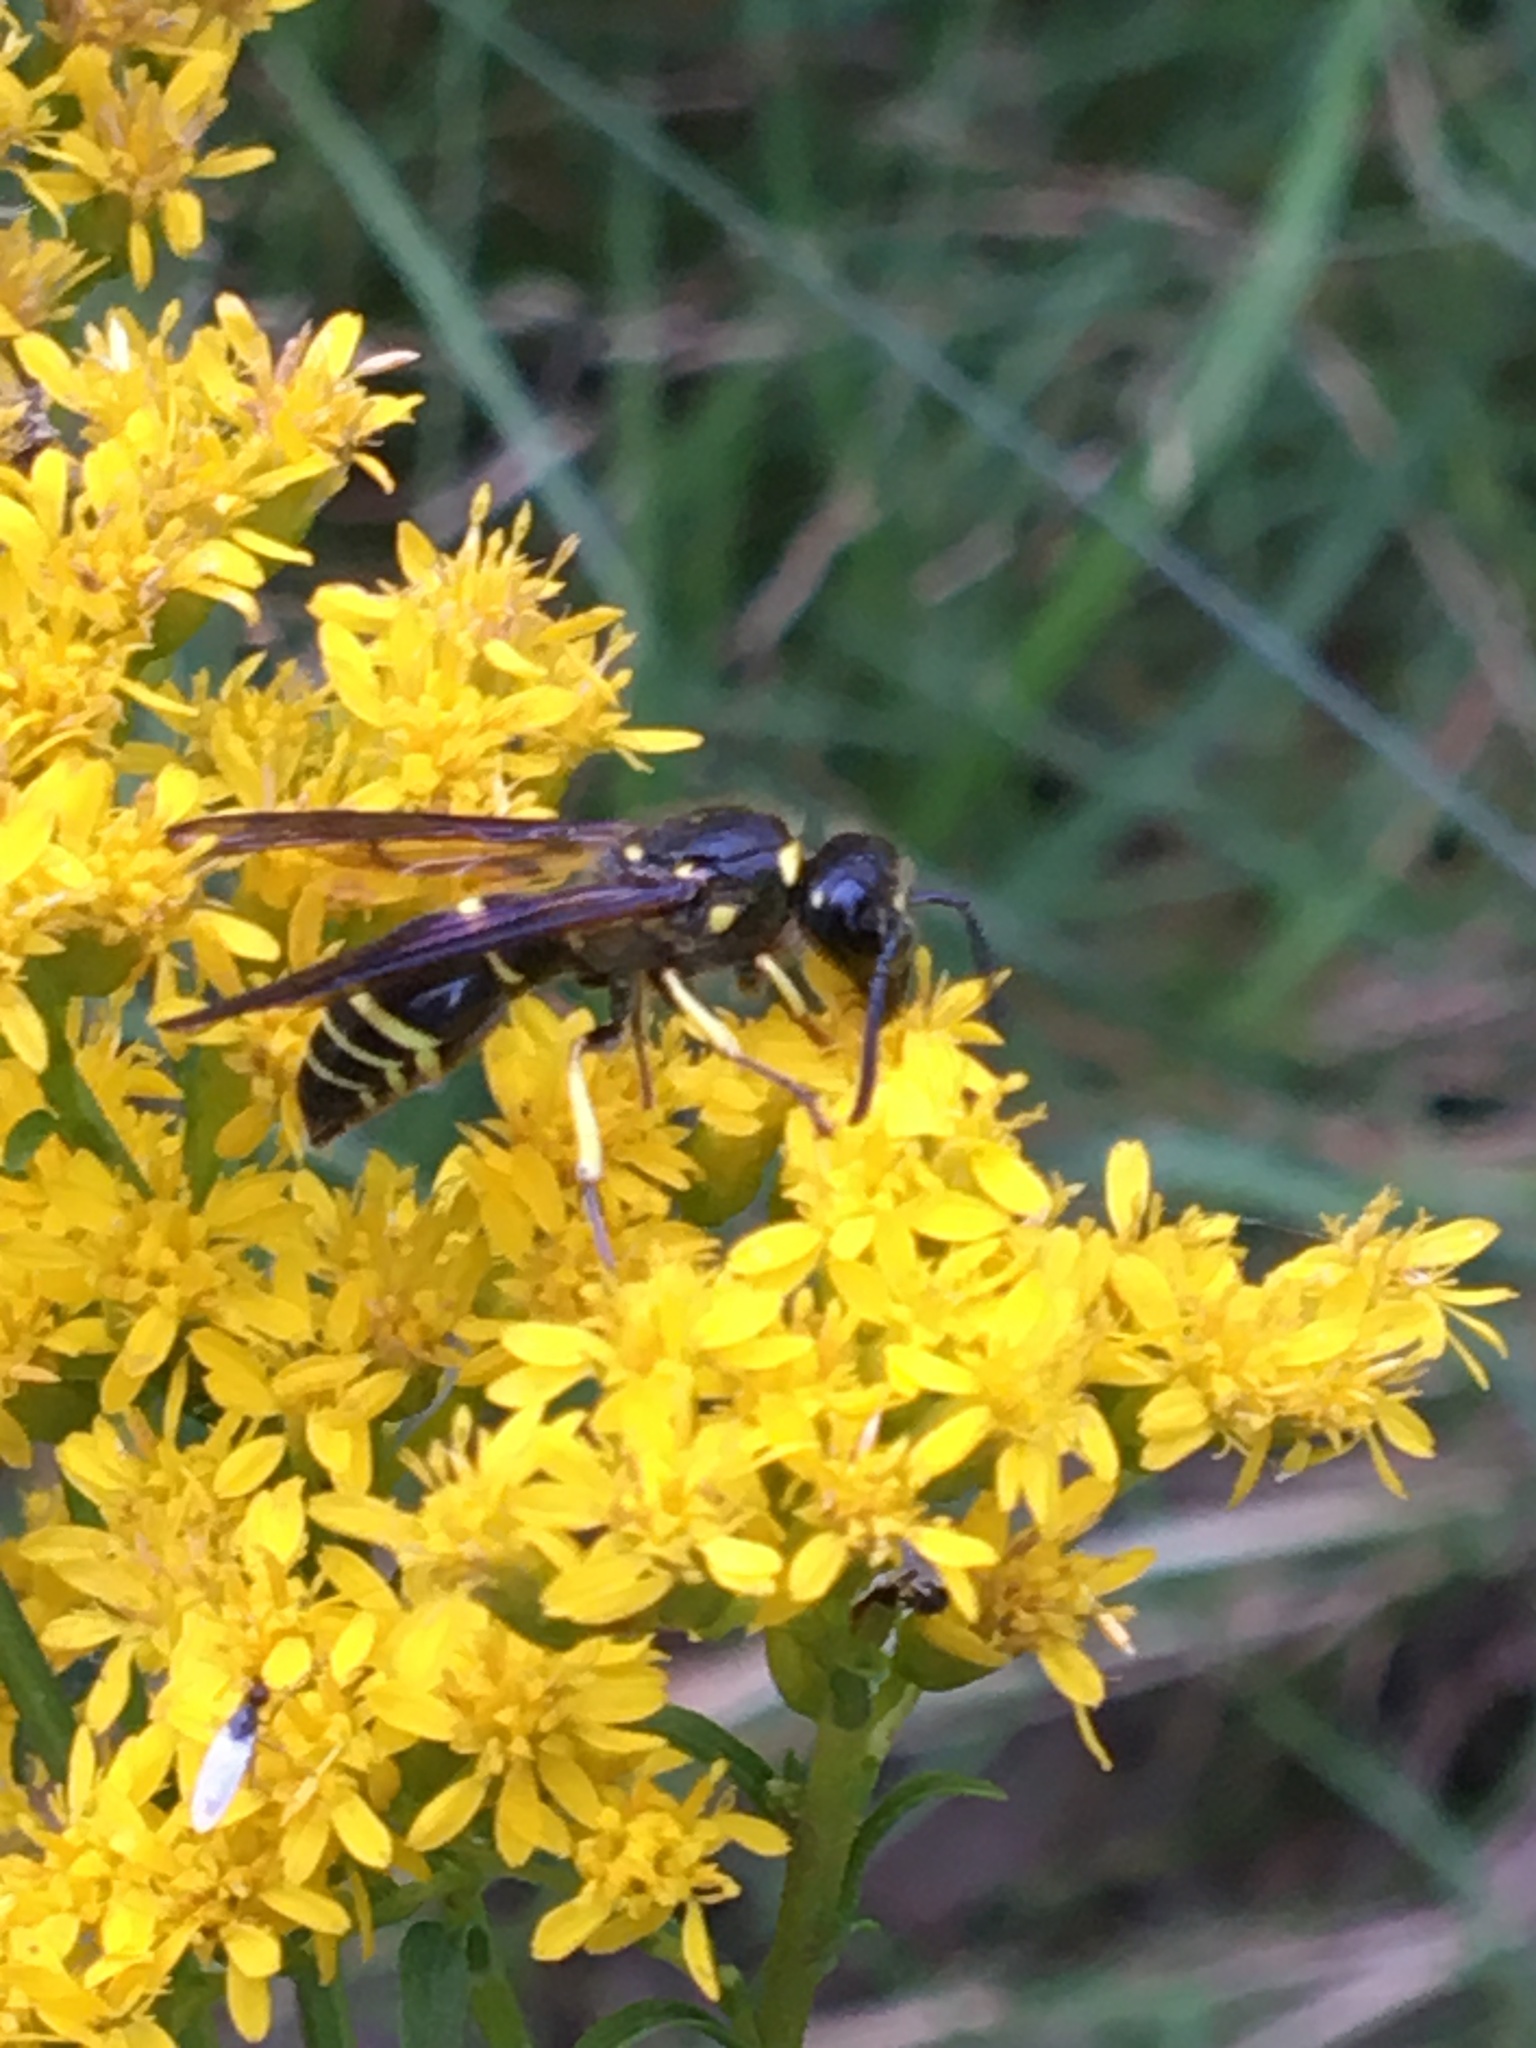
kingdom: Animalia
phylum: Arthropoda
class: Insecta
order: Hymenoptera
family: Vespidae
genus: Ancistrocerus
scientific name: Ancistrocerus
